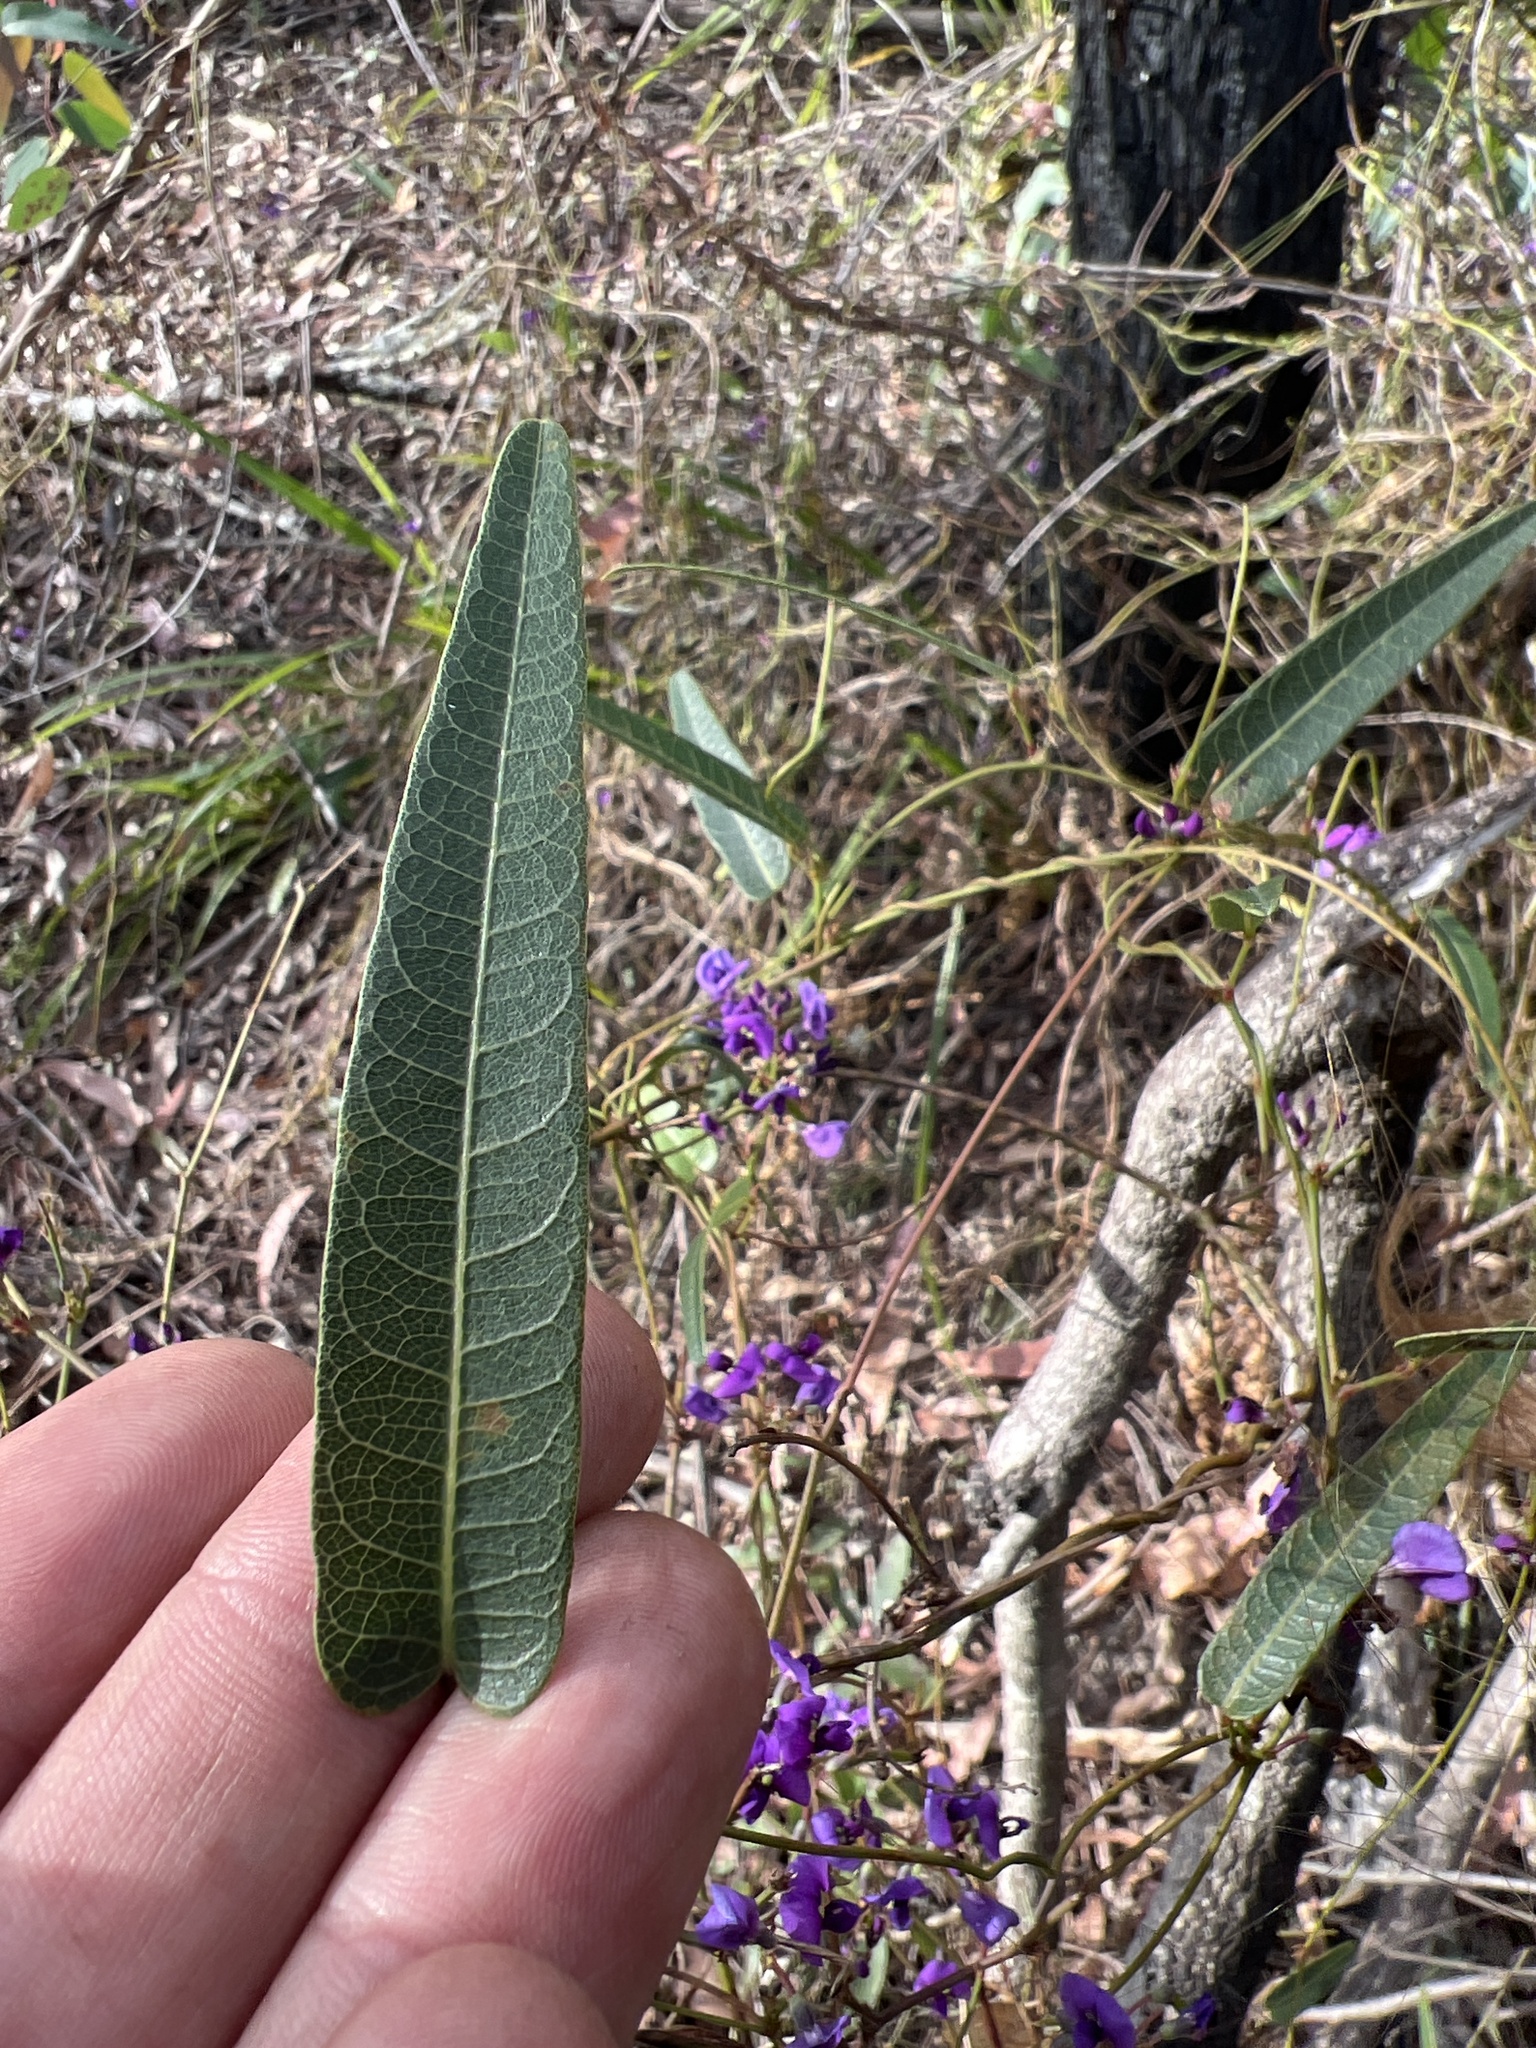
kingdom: Plantae
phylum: Tracheophyta
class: Magnoliopsida
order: Fabales
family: Fabaceae
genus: Hardenbergia
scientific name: Hardenbergia violacea
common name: Coral-pea
